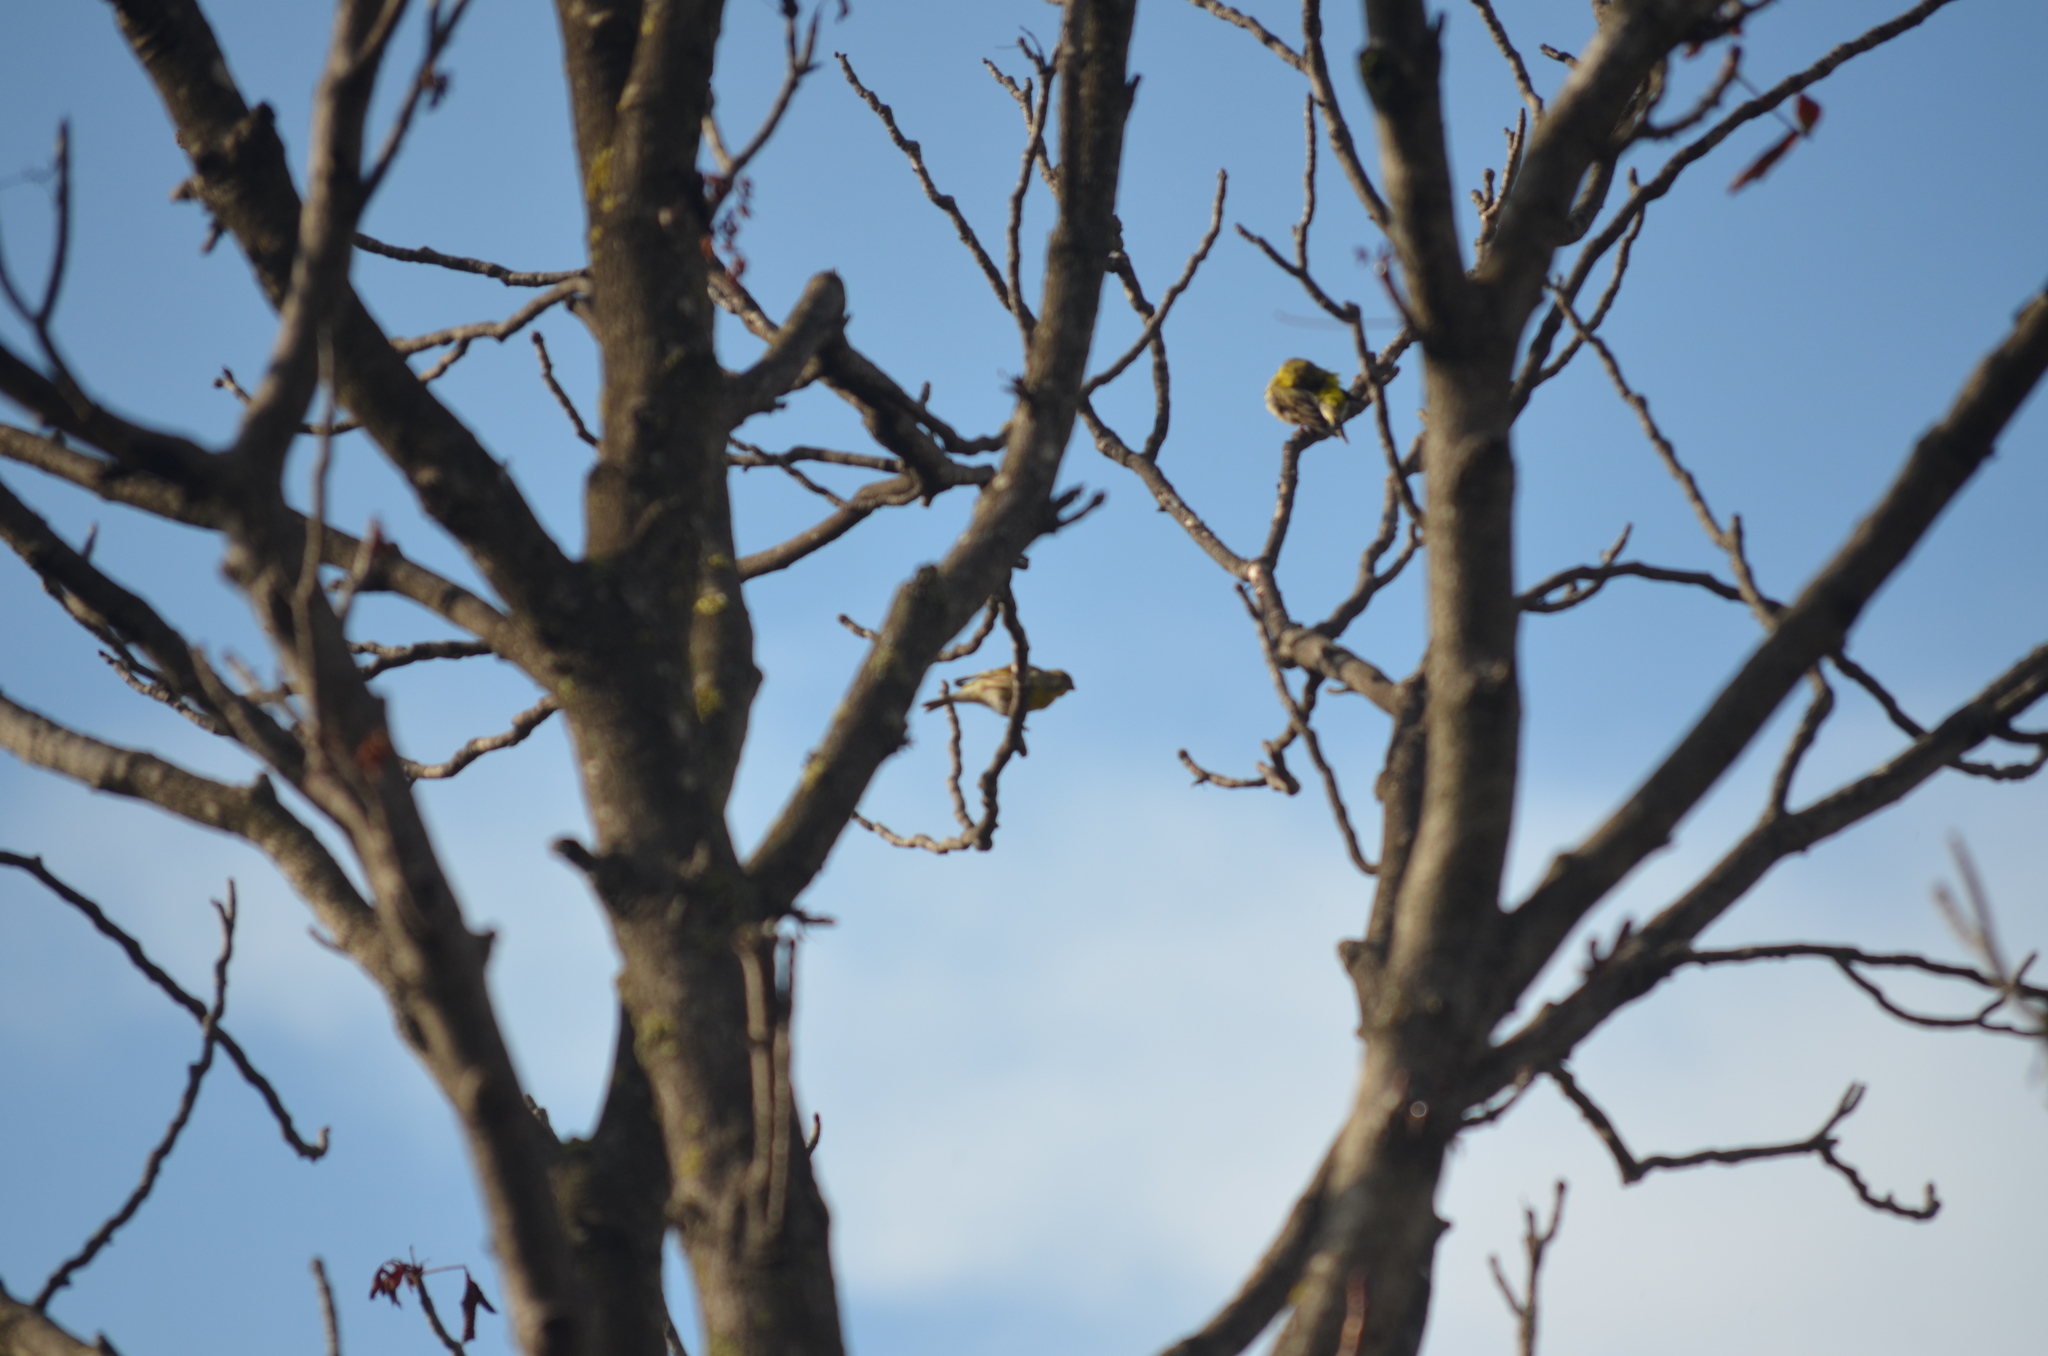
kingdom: Animalia
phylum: Chordata
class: Aves
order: Passeriformes
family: Fringillidae
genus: Serinus
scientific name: Serinus serinus
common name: European serin
